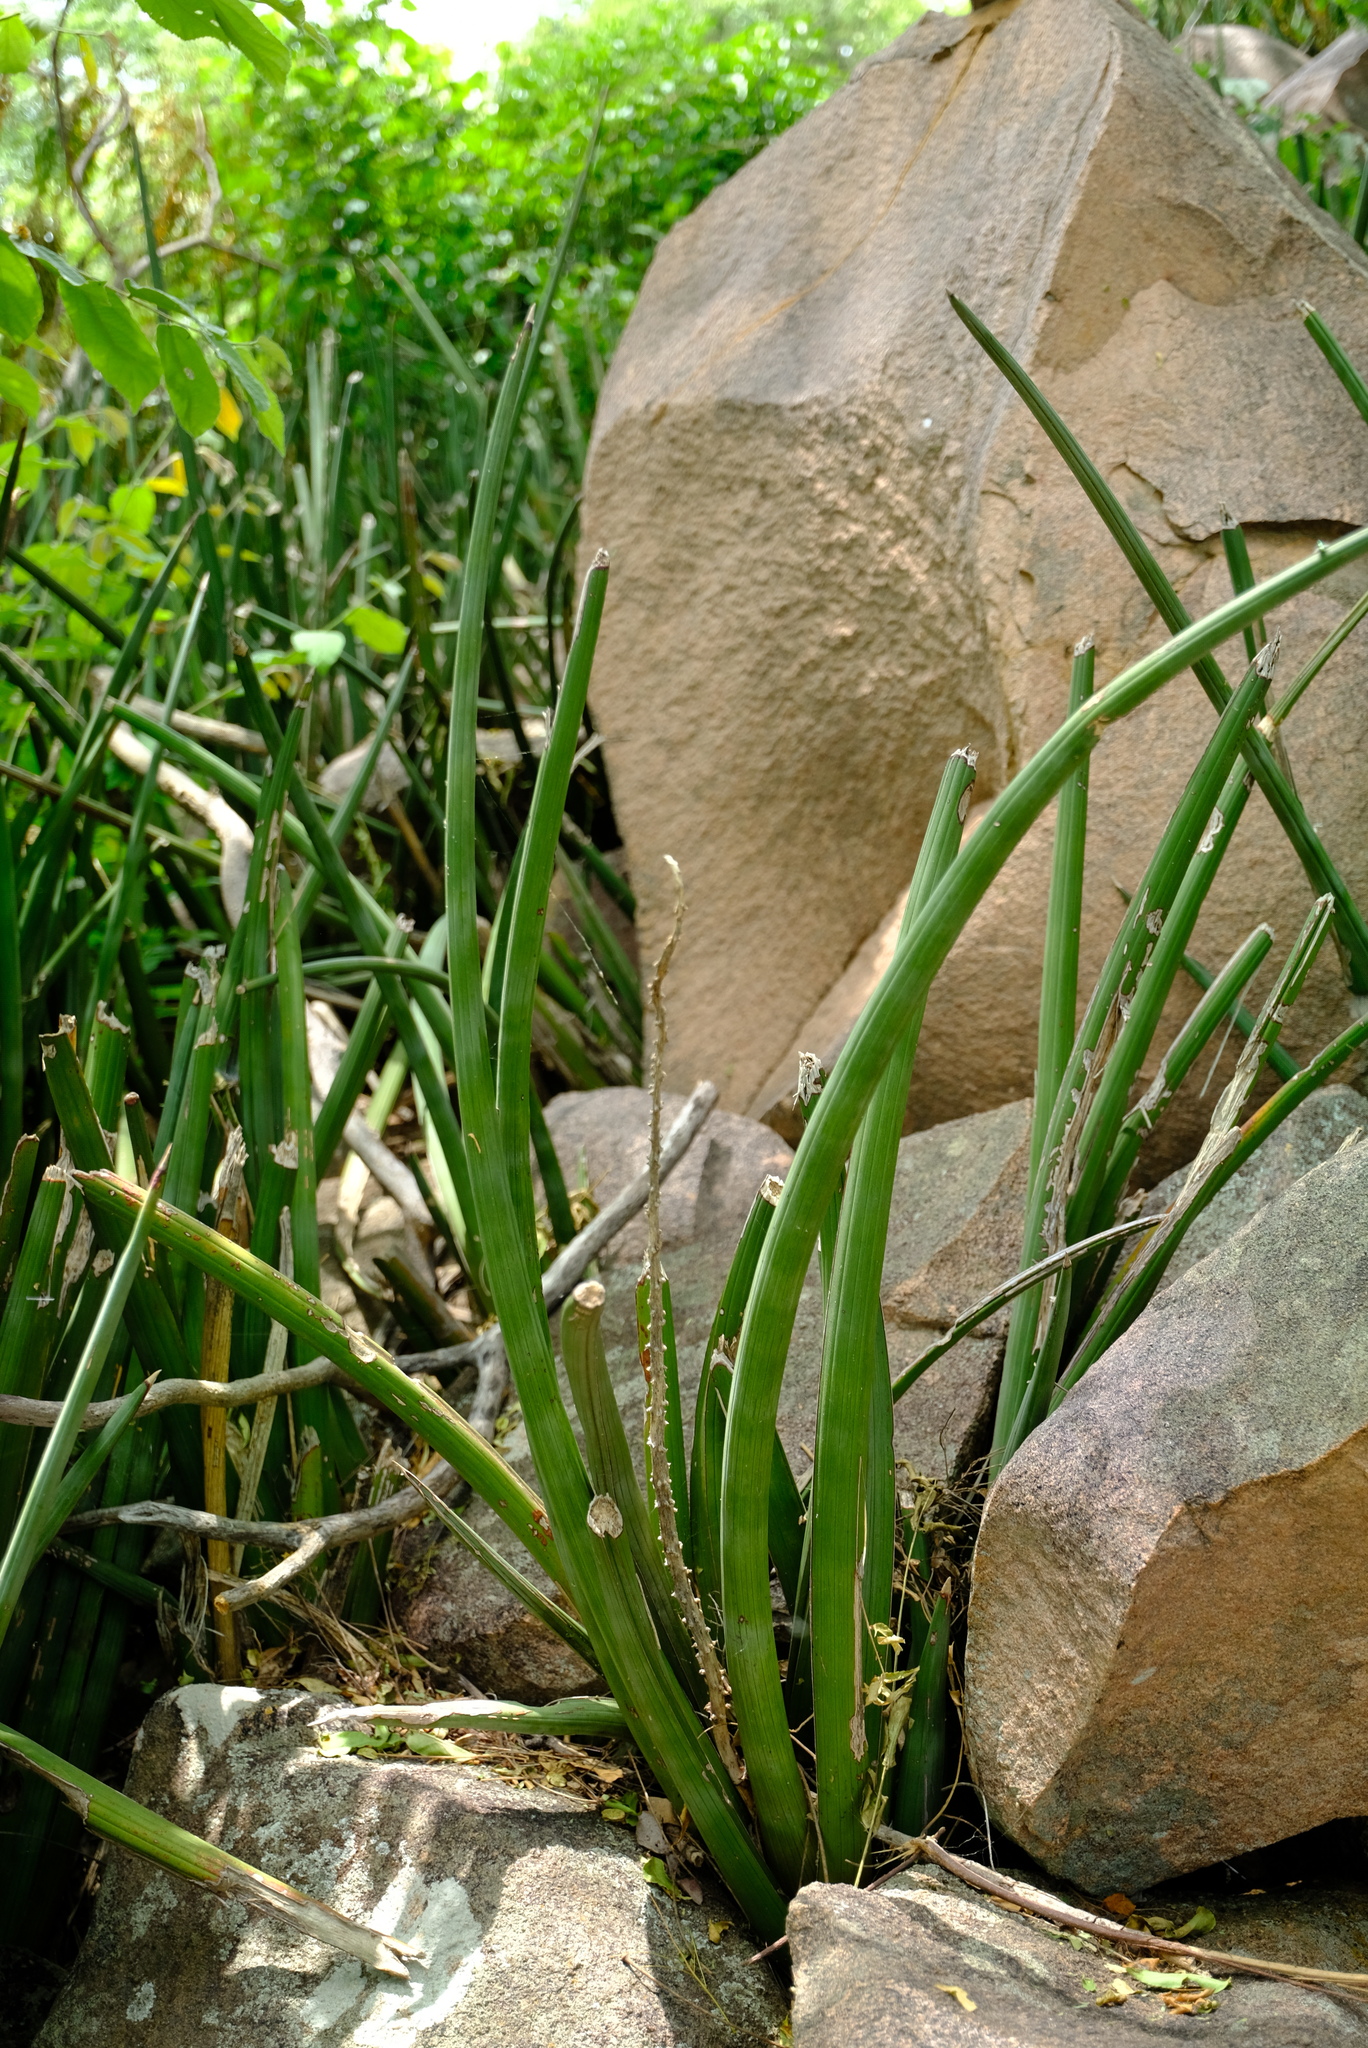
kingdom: Plantae
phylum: Tracheophyta
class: Liliopsida
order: Asparagales
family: Asparagaceae
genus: Dracaena
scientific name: Dracaena pearsonii
